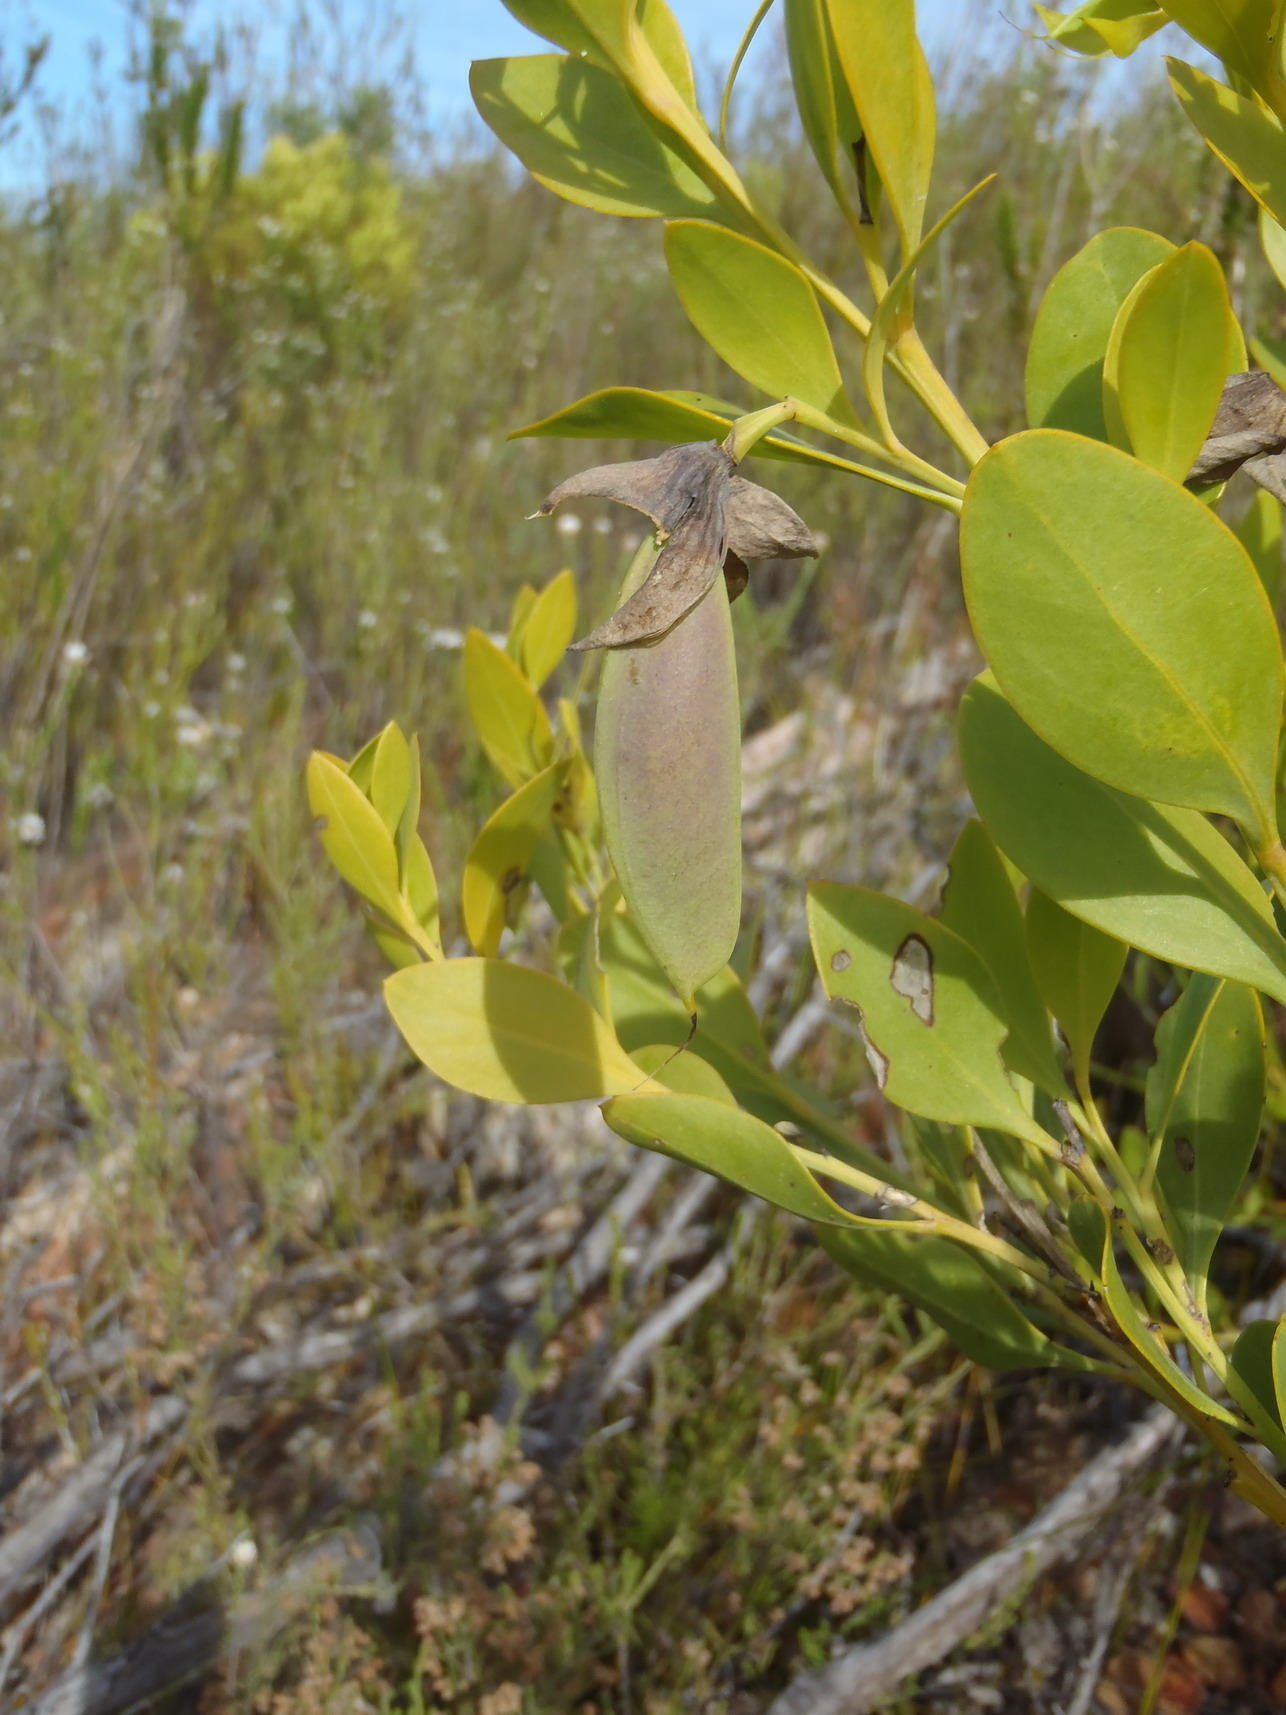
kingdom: Plantae
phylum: Tracheophyta
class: Magnoliopsida
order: Fabales
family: Fabaceae
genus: Rafnia
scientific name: Rafnia vlokii
